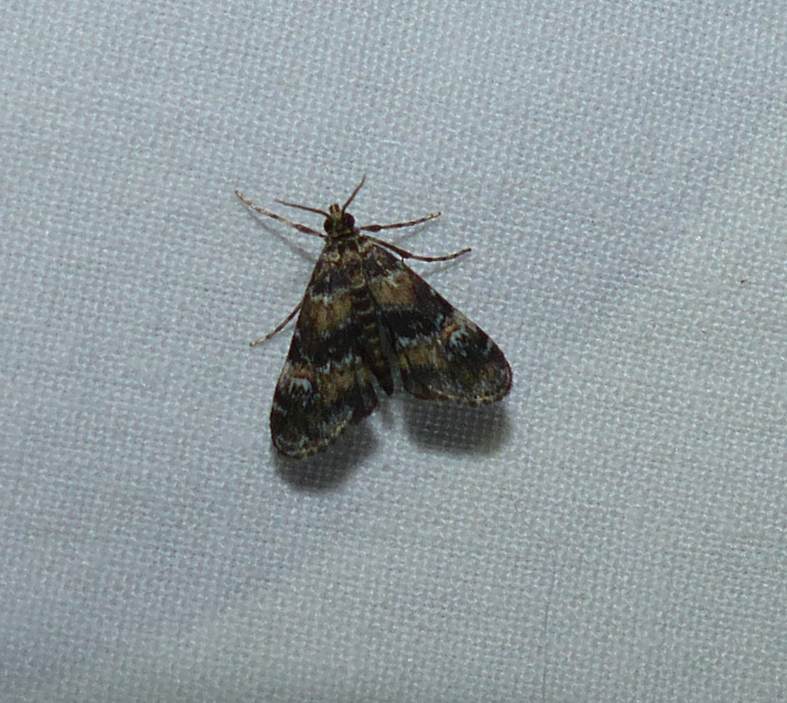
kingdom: Animalia
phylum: Arthropoda
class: Insecta
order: Lepidoptera
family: Crambidae
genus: Elophila
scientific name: Elophila obliteralis
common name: Waterlily leafcutter moth
